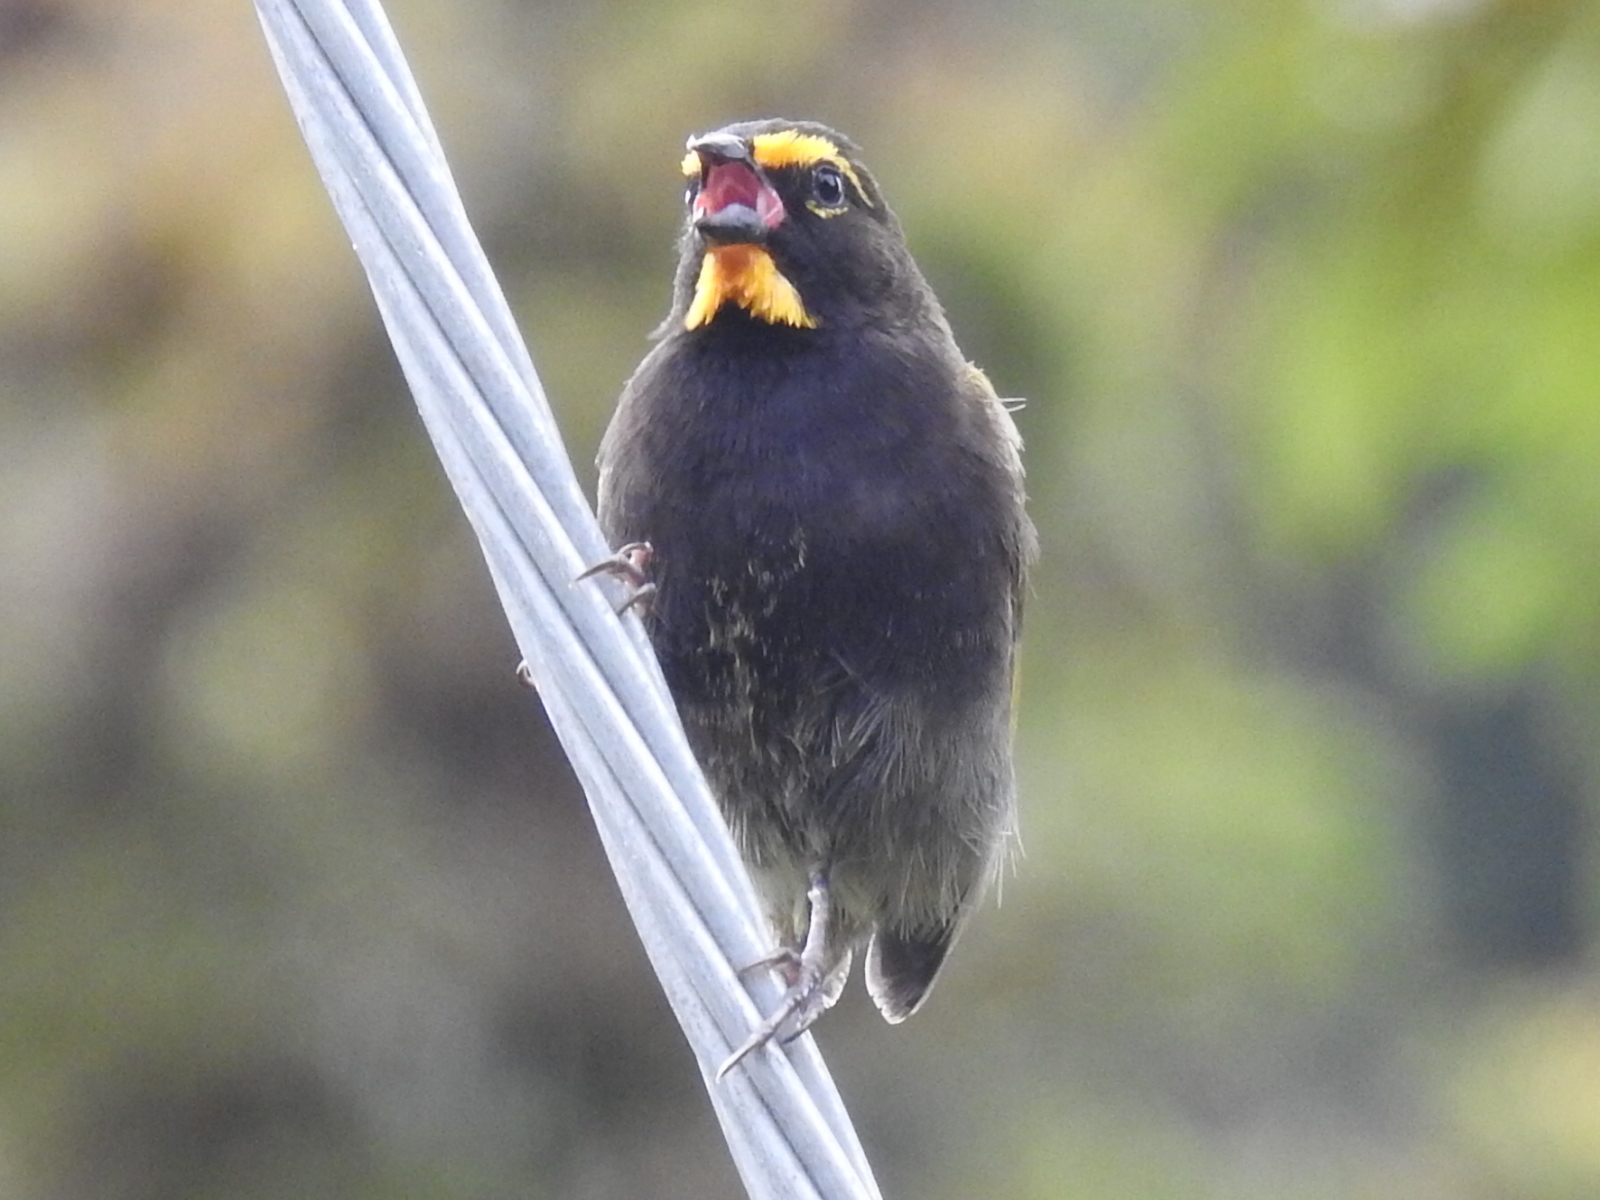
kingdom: Animalia
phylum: Chordata
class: Aves
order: Passeriformes
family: Thraupidae
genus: Tiaris
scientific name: Tiaris olivaceus
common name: Yellow-faced grassquit
